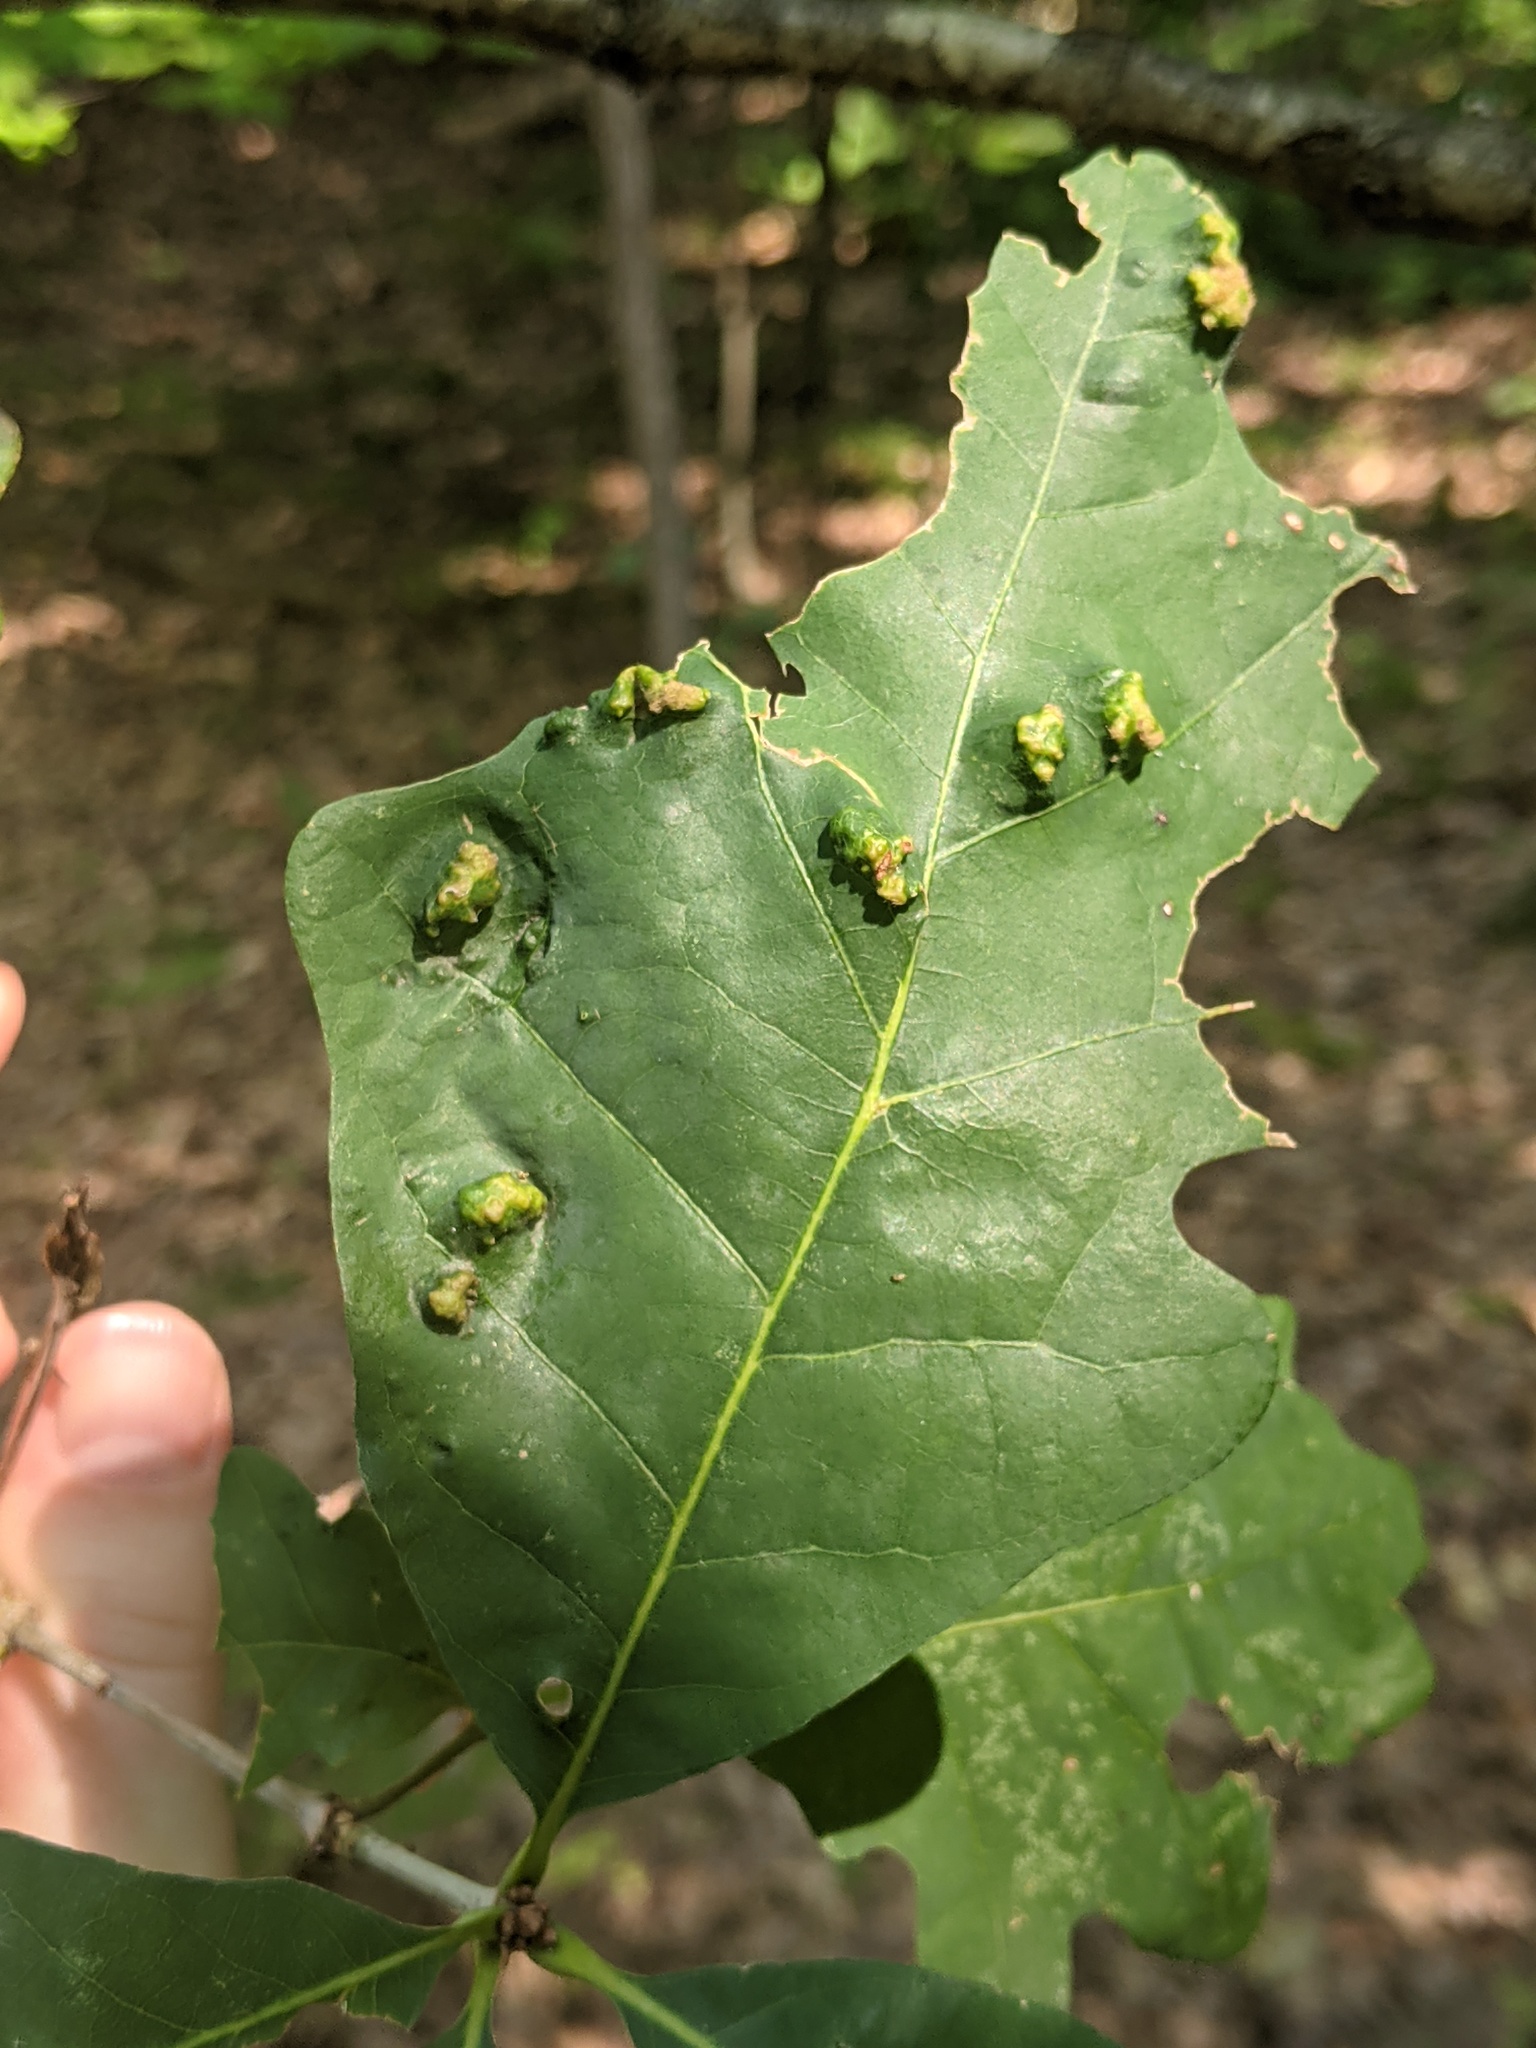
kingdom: Animalia
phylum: Arthropoda
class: Arachnida
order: Trombidiformes
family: Eriophyidae
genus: Aceria
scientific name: Aceria
